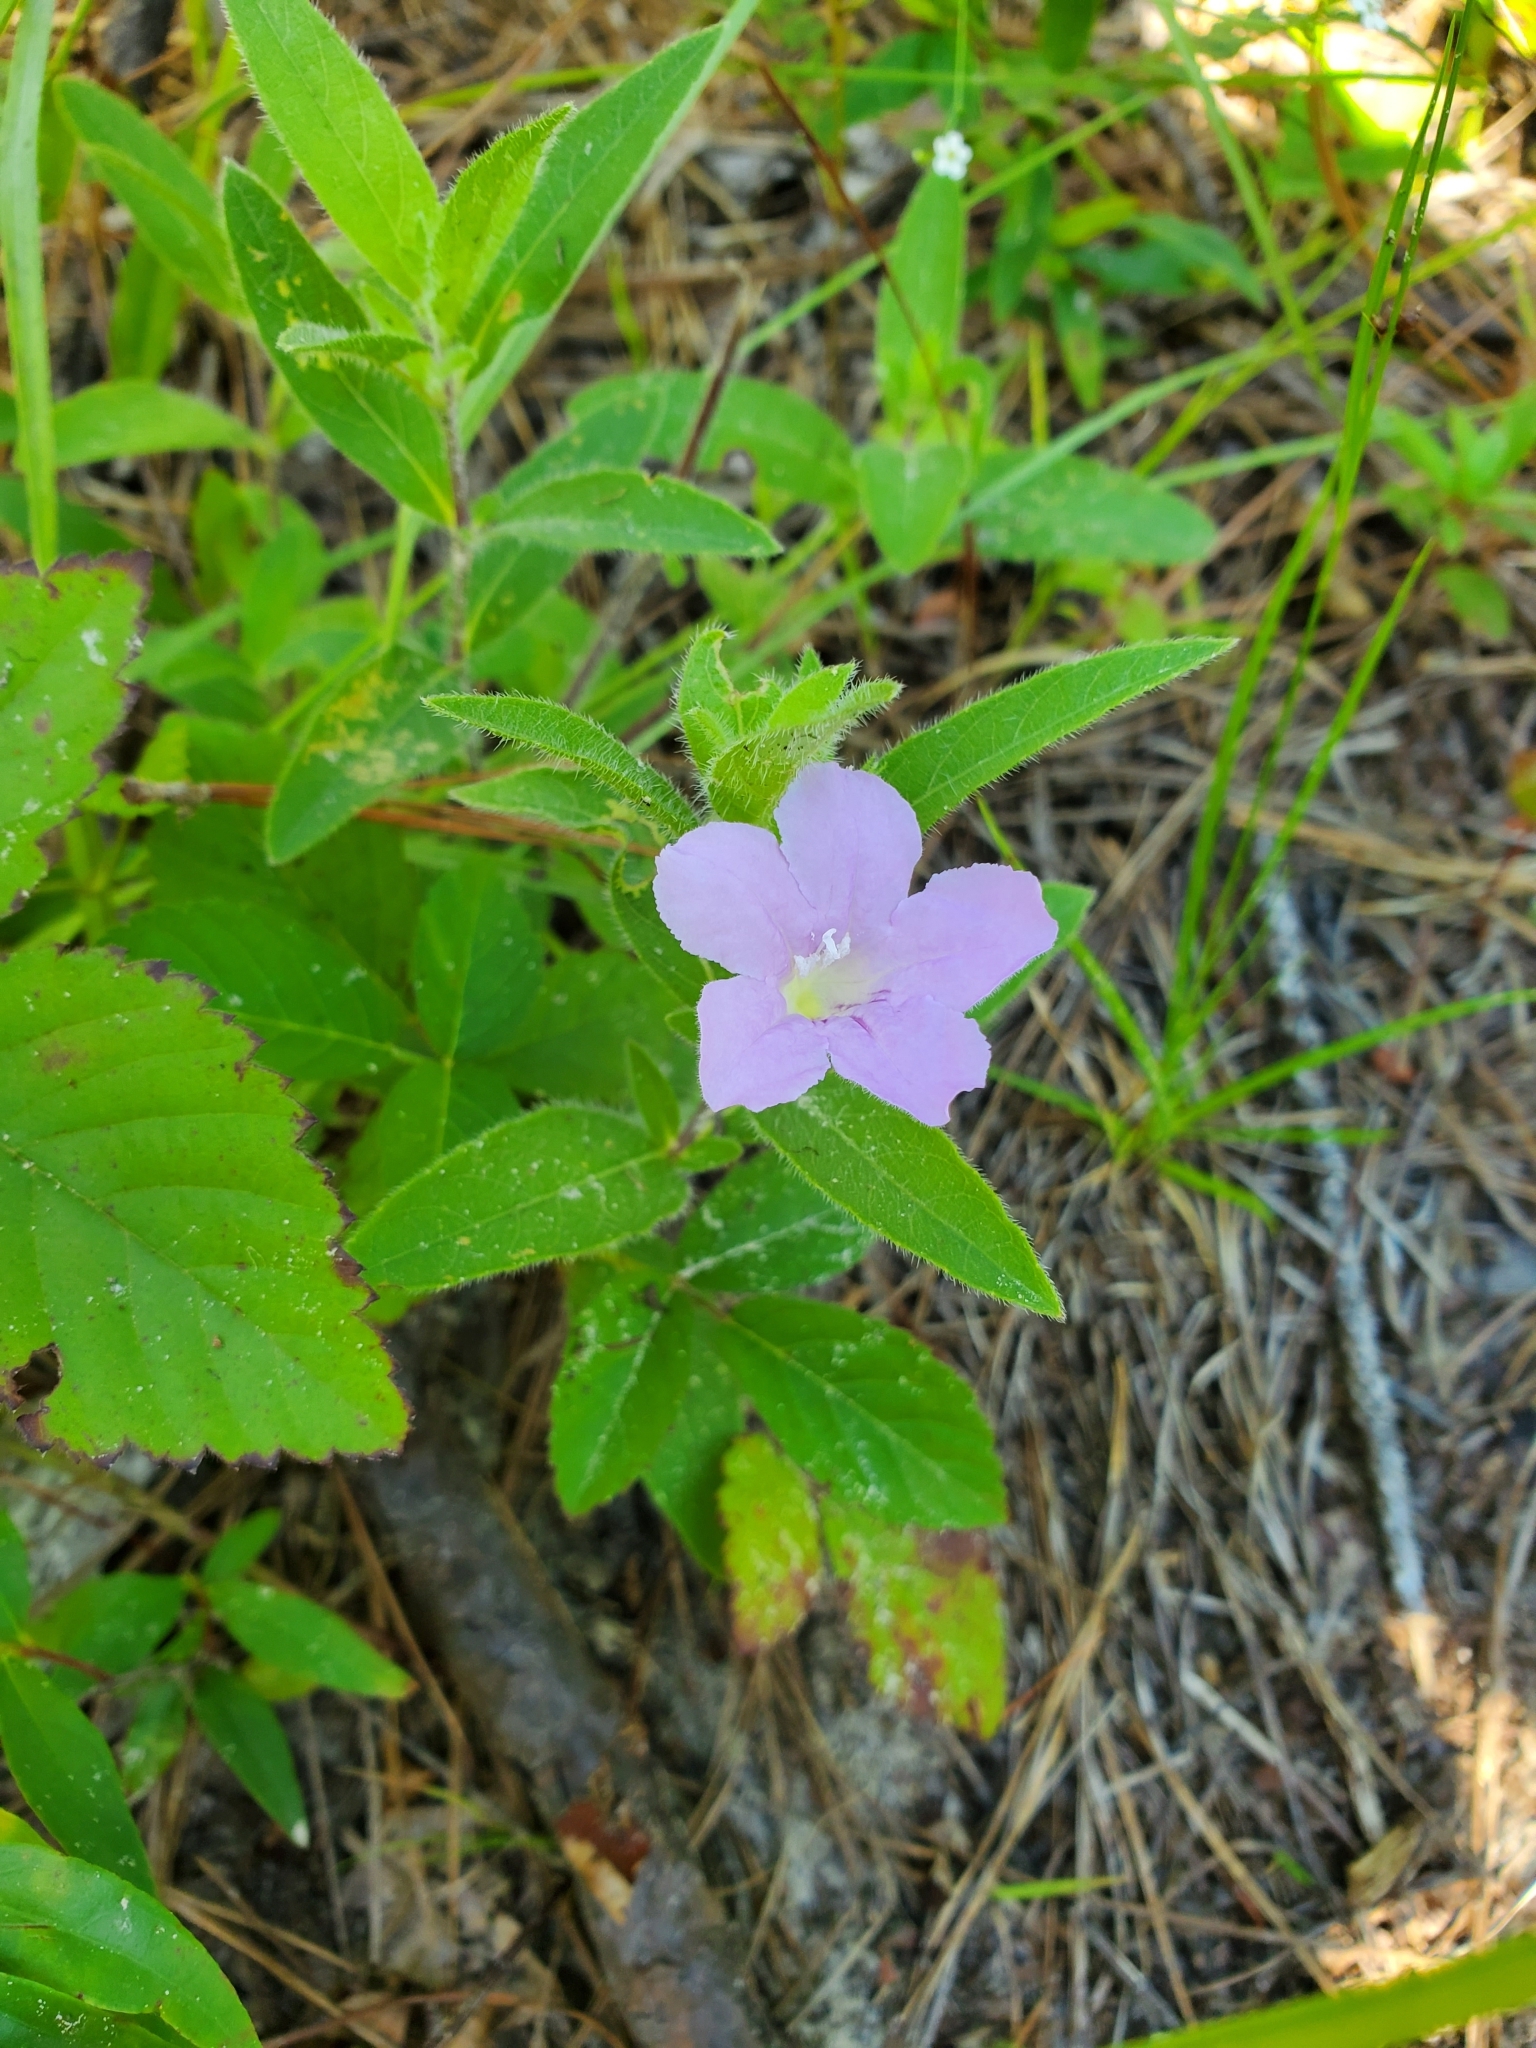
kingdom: Plantae
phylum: Tracheophyta
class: Magnoliopsida
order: Lamiales
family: Acanthaceae
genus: Ruellia
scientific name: Ruellia humilis
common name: Fringe-leaf ruellia
